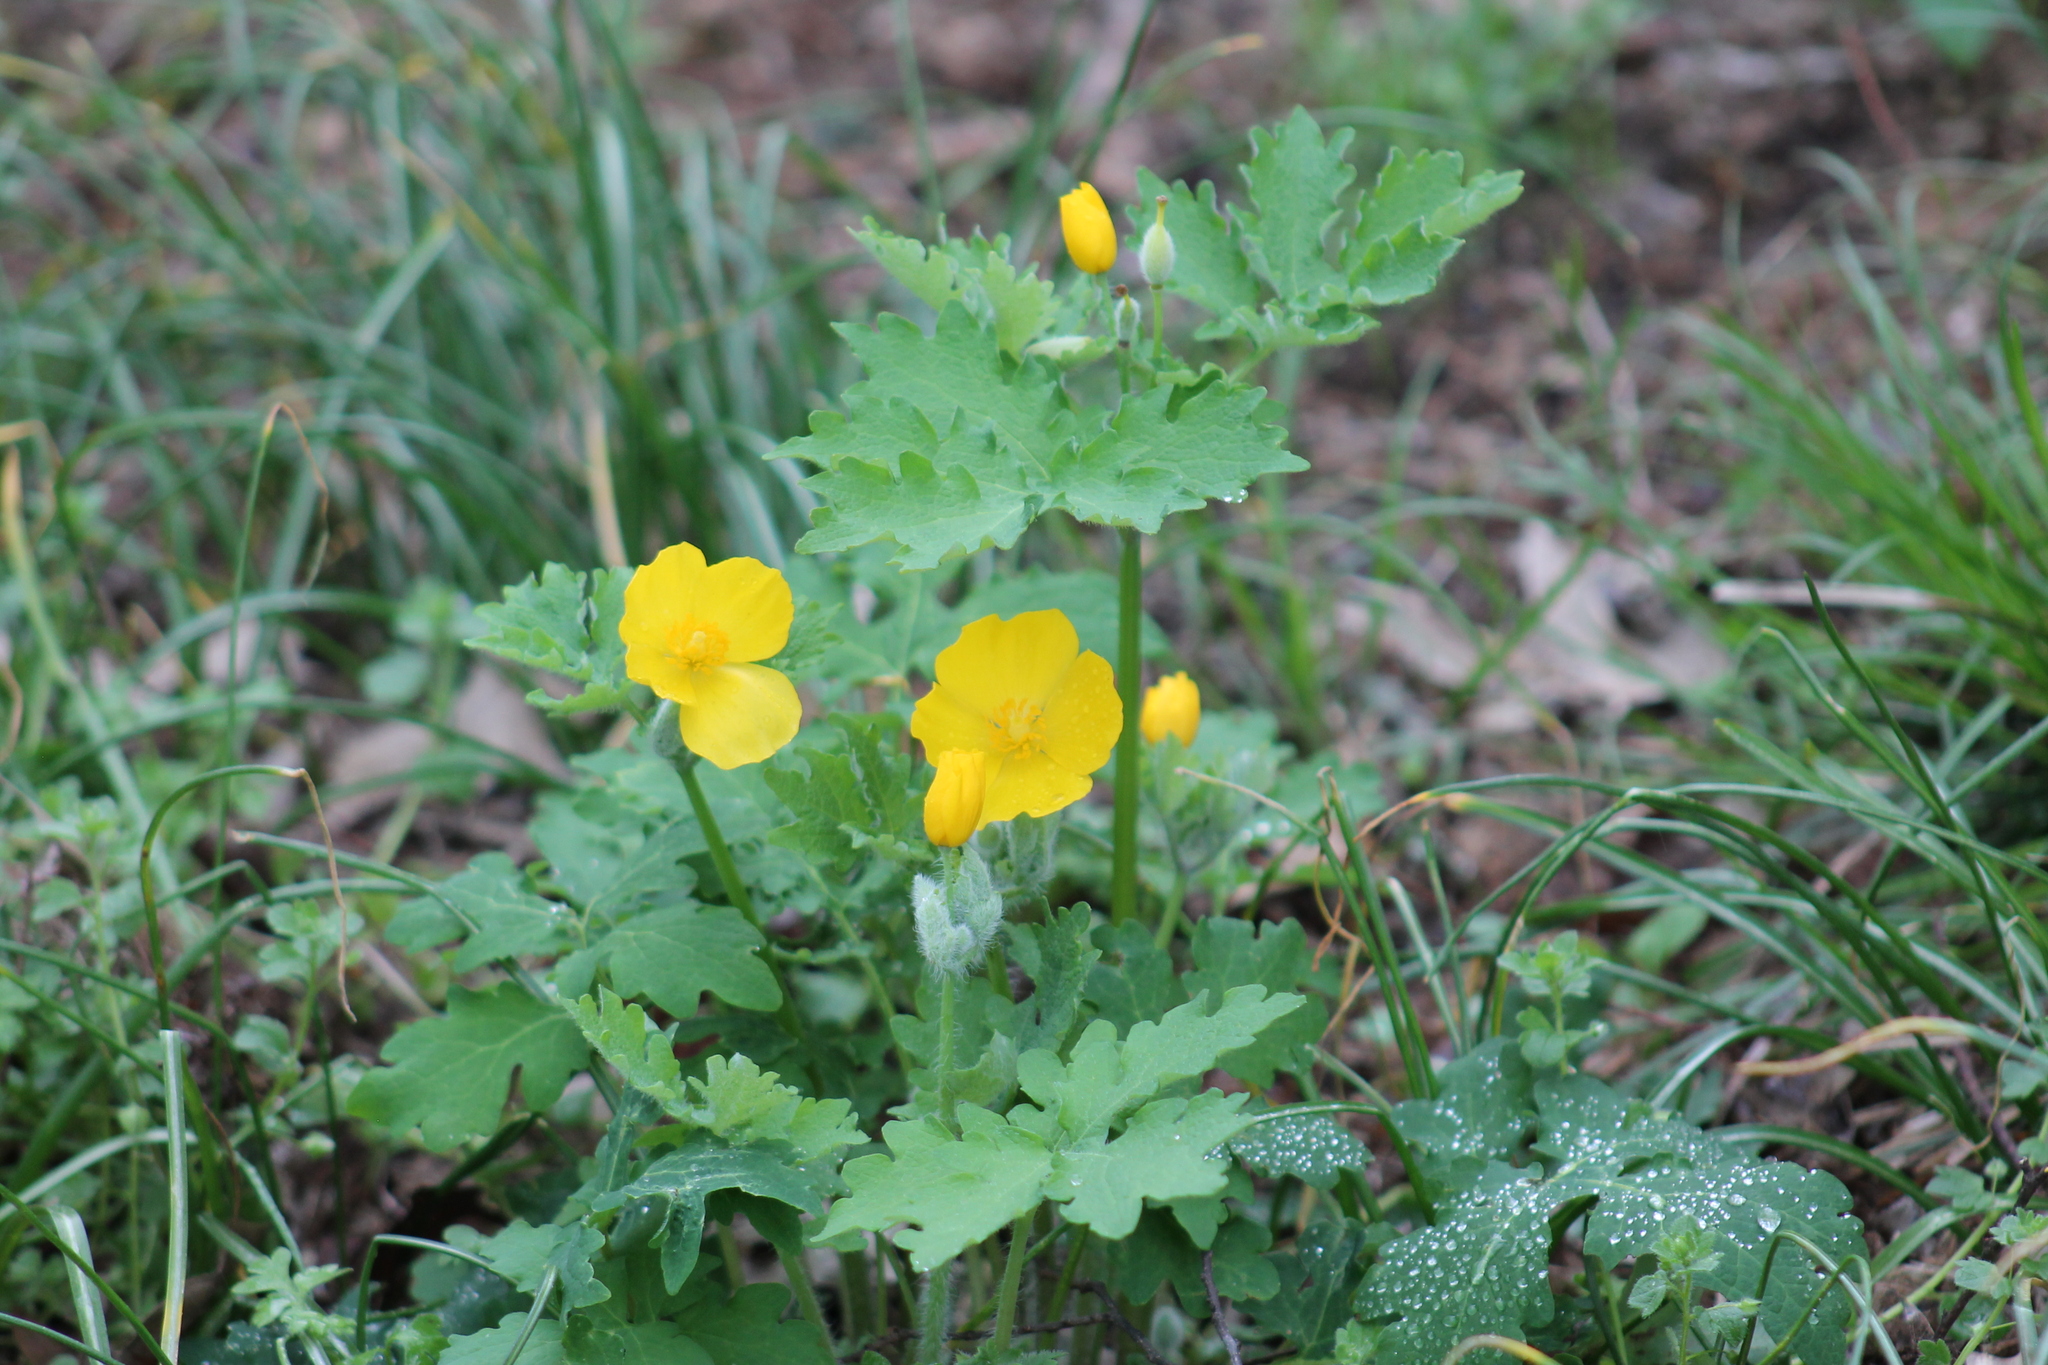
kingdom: Plantae
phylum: Tracheophyta
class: Magnoliopsida
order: Ranunculales
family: Papaveraceae
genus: Stylophorum
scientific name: Stylophorum diphyllum
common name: Celandine poppy
